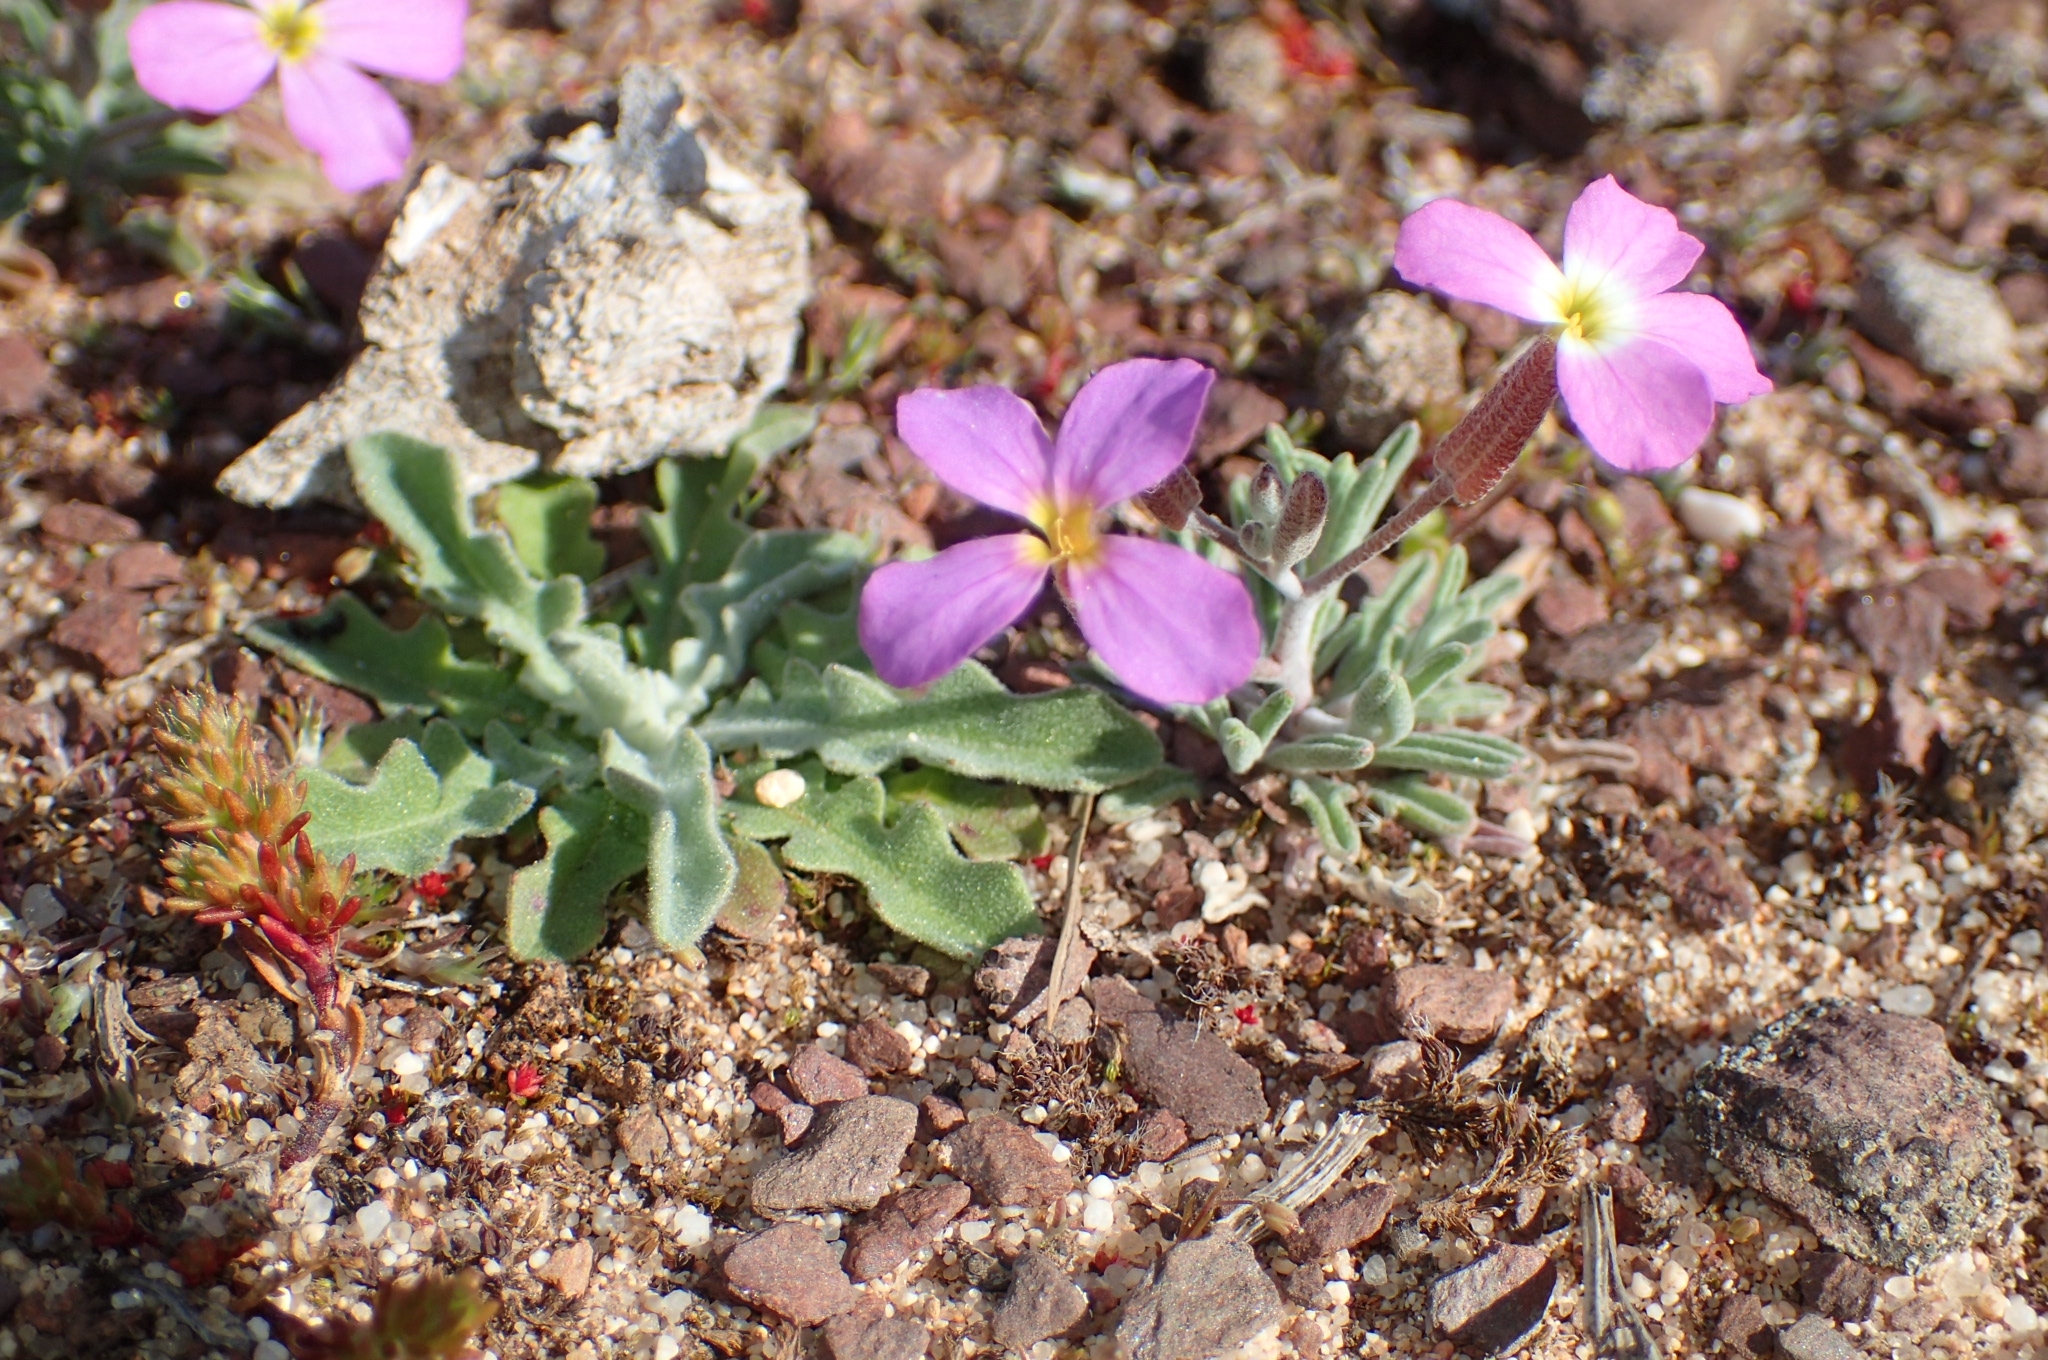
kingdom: Plantae
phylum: Tracheophyta
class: Magnoliopsida
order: Brassicales
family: Brassicaceae
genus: Marcuskochia
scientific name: Marcuskochia triloba
